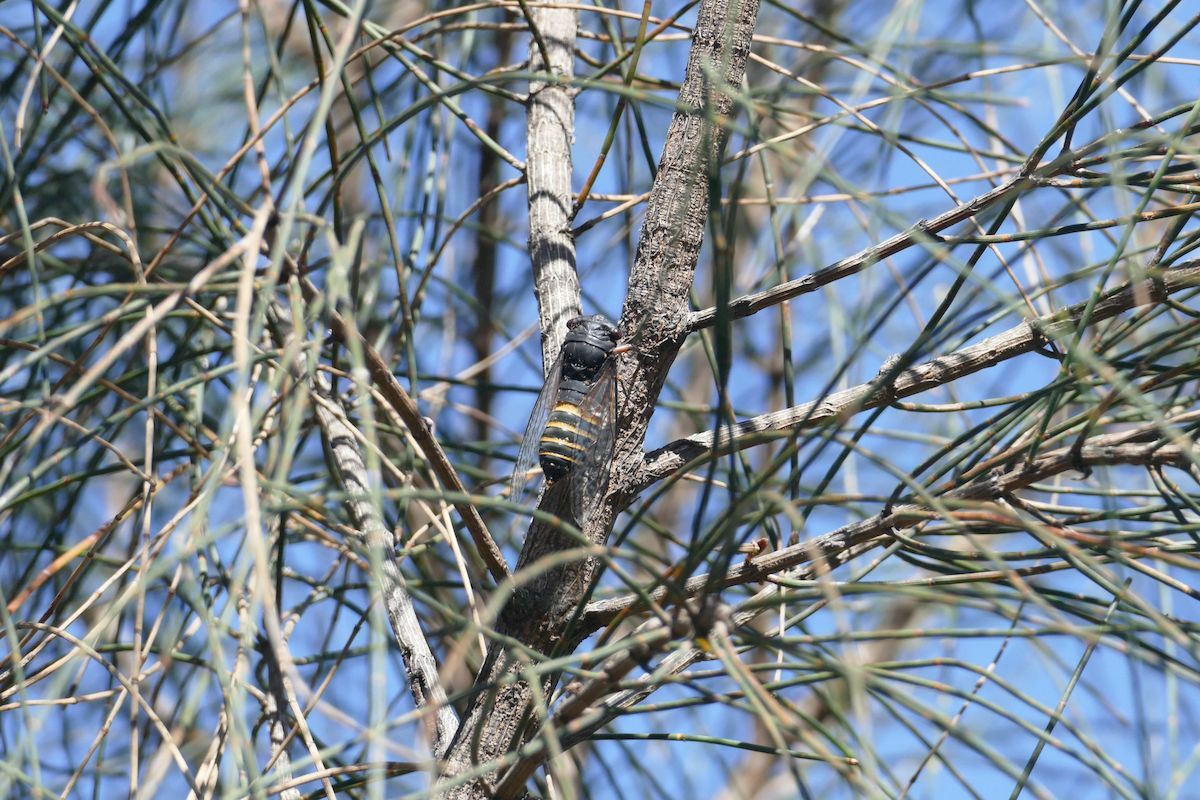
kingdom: Animalia
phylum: Arthropoda
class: Insecta
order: Hemiptera
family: Cicadidae
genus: Psaltoda
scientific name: Psaltoda plaga
